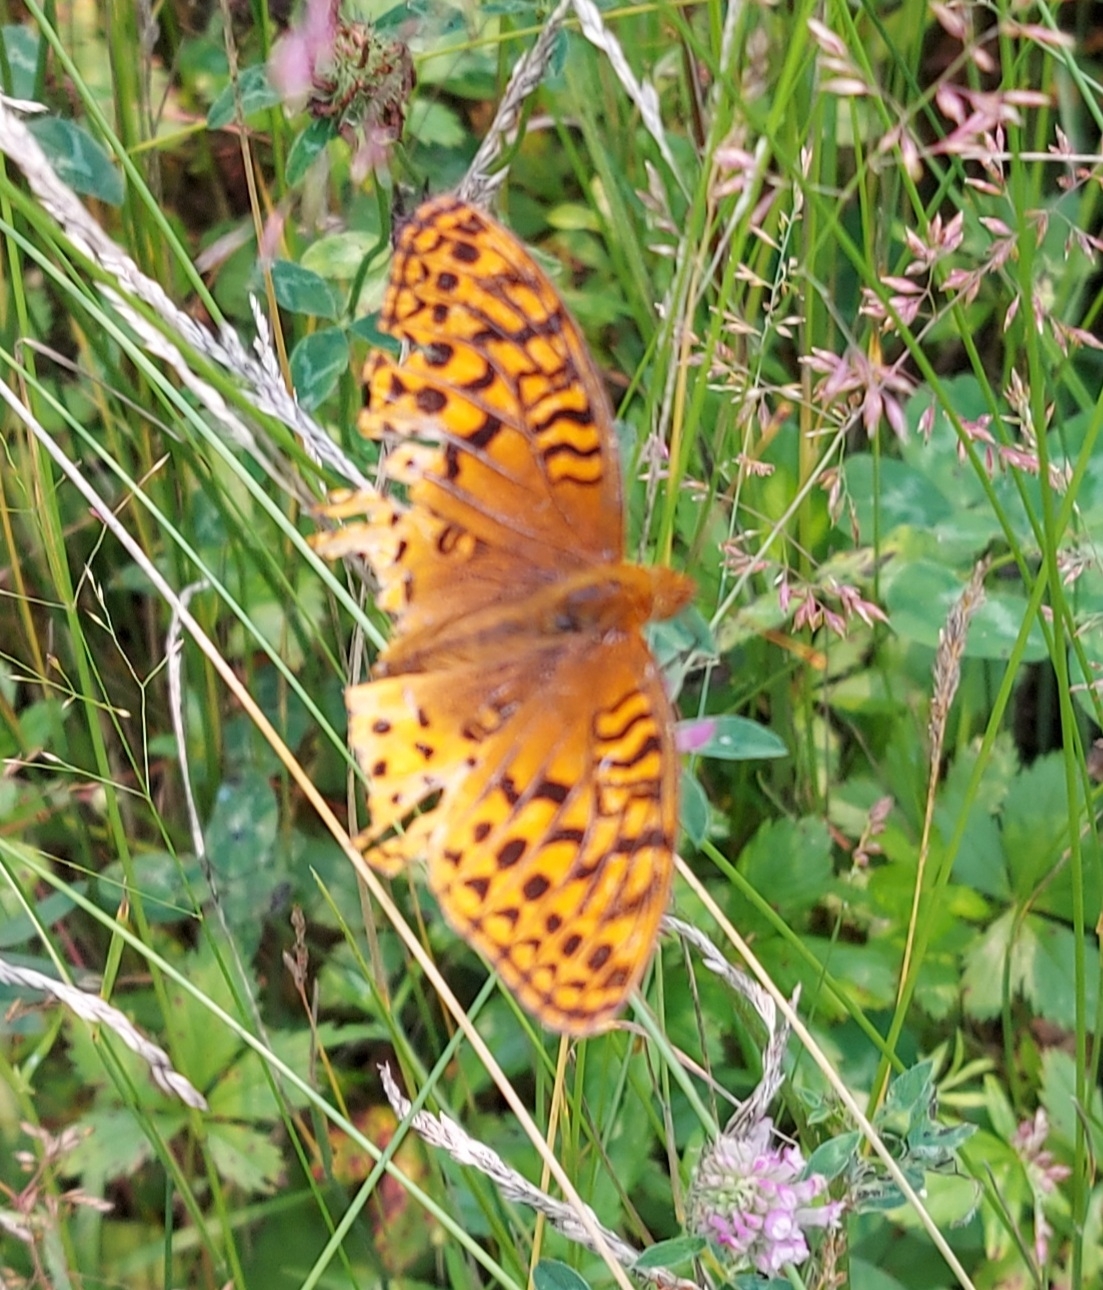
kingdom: Animalia
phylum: Arthropoda
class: Insecta
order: Lepidoptera
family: Nymphalidae
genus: Speyeria
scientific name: Speyeria cybele
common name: Great spangled fritillary
